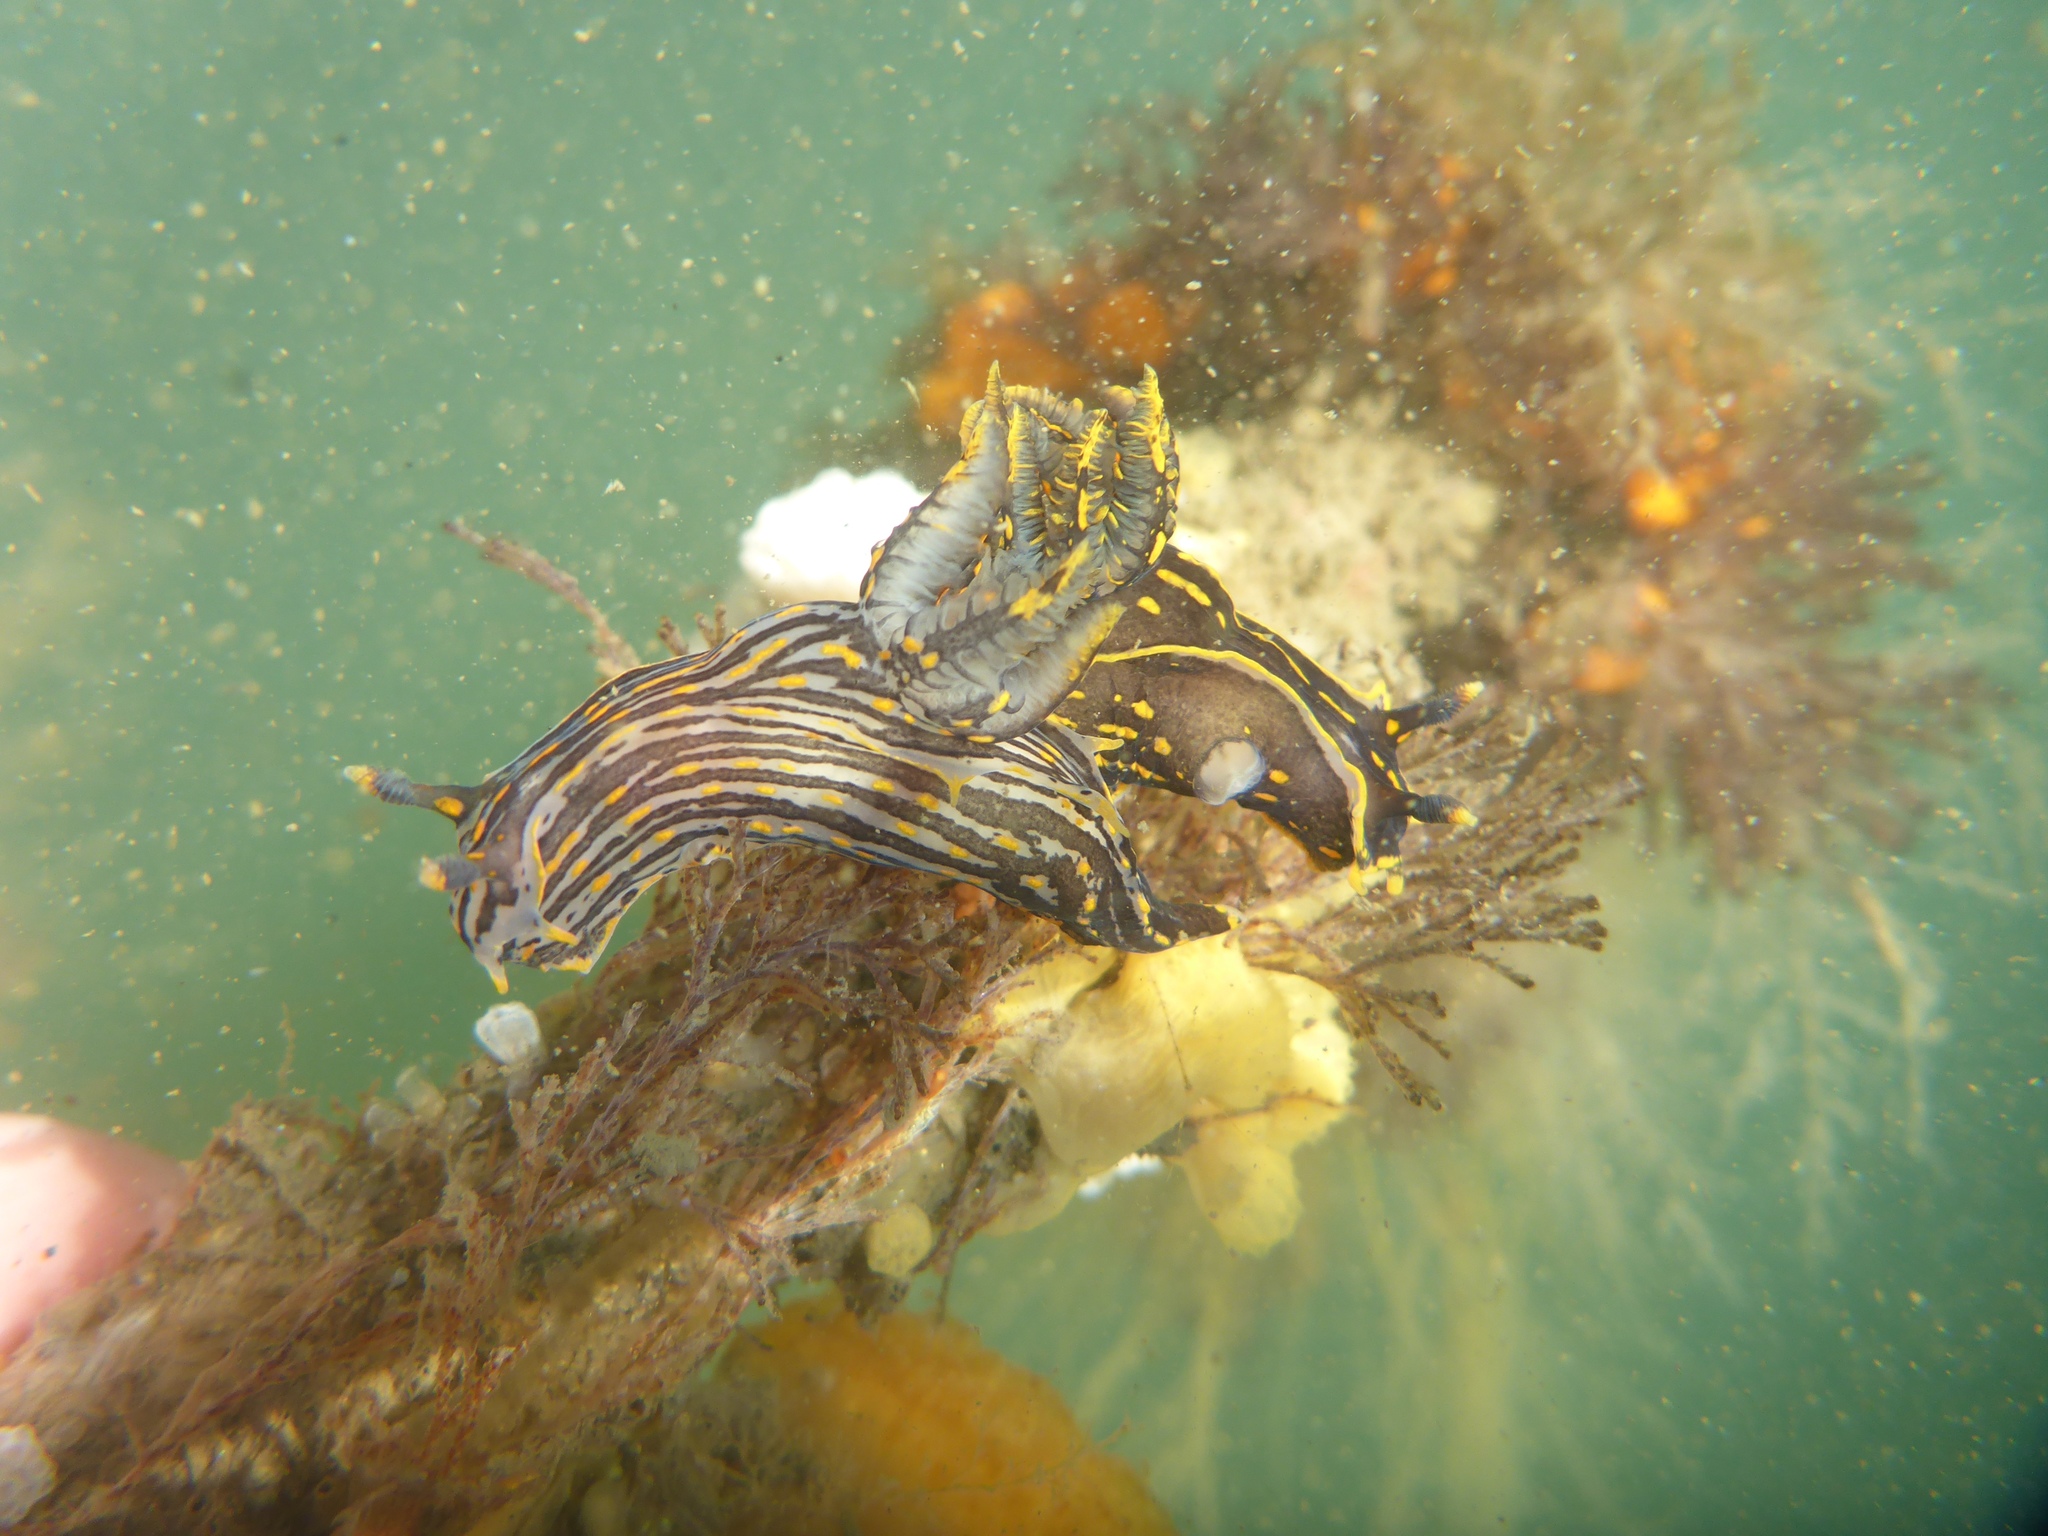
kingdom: Animalia
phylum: Mollusca
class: Gastropoda
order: Nudibranchia
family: Polyceridae
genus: Polycera
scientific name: Polycera atra
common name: Orange-spike polycera
